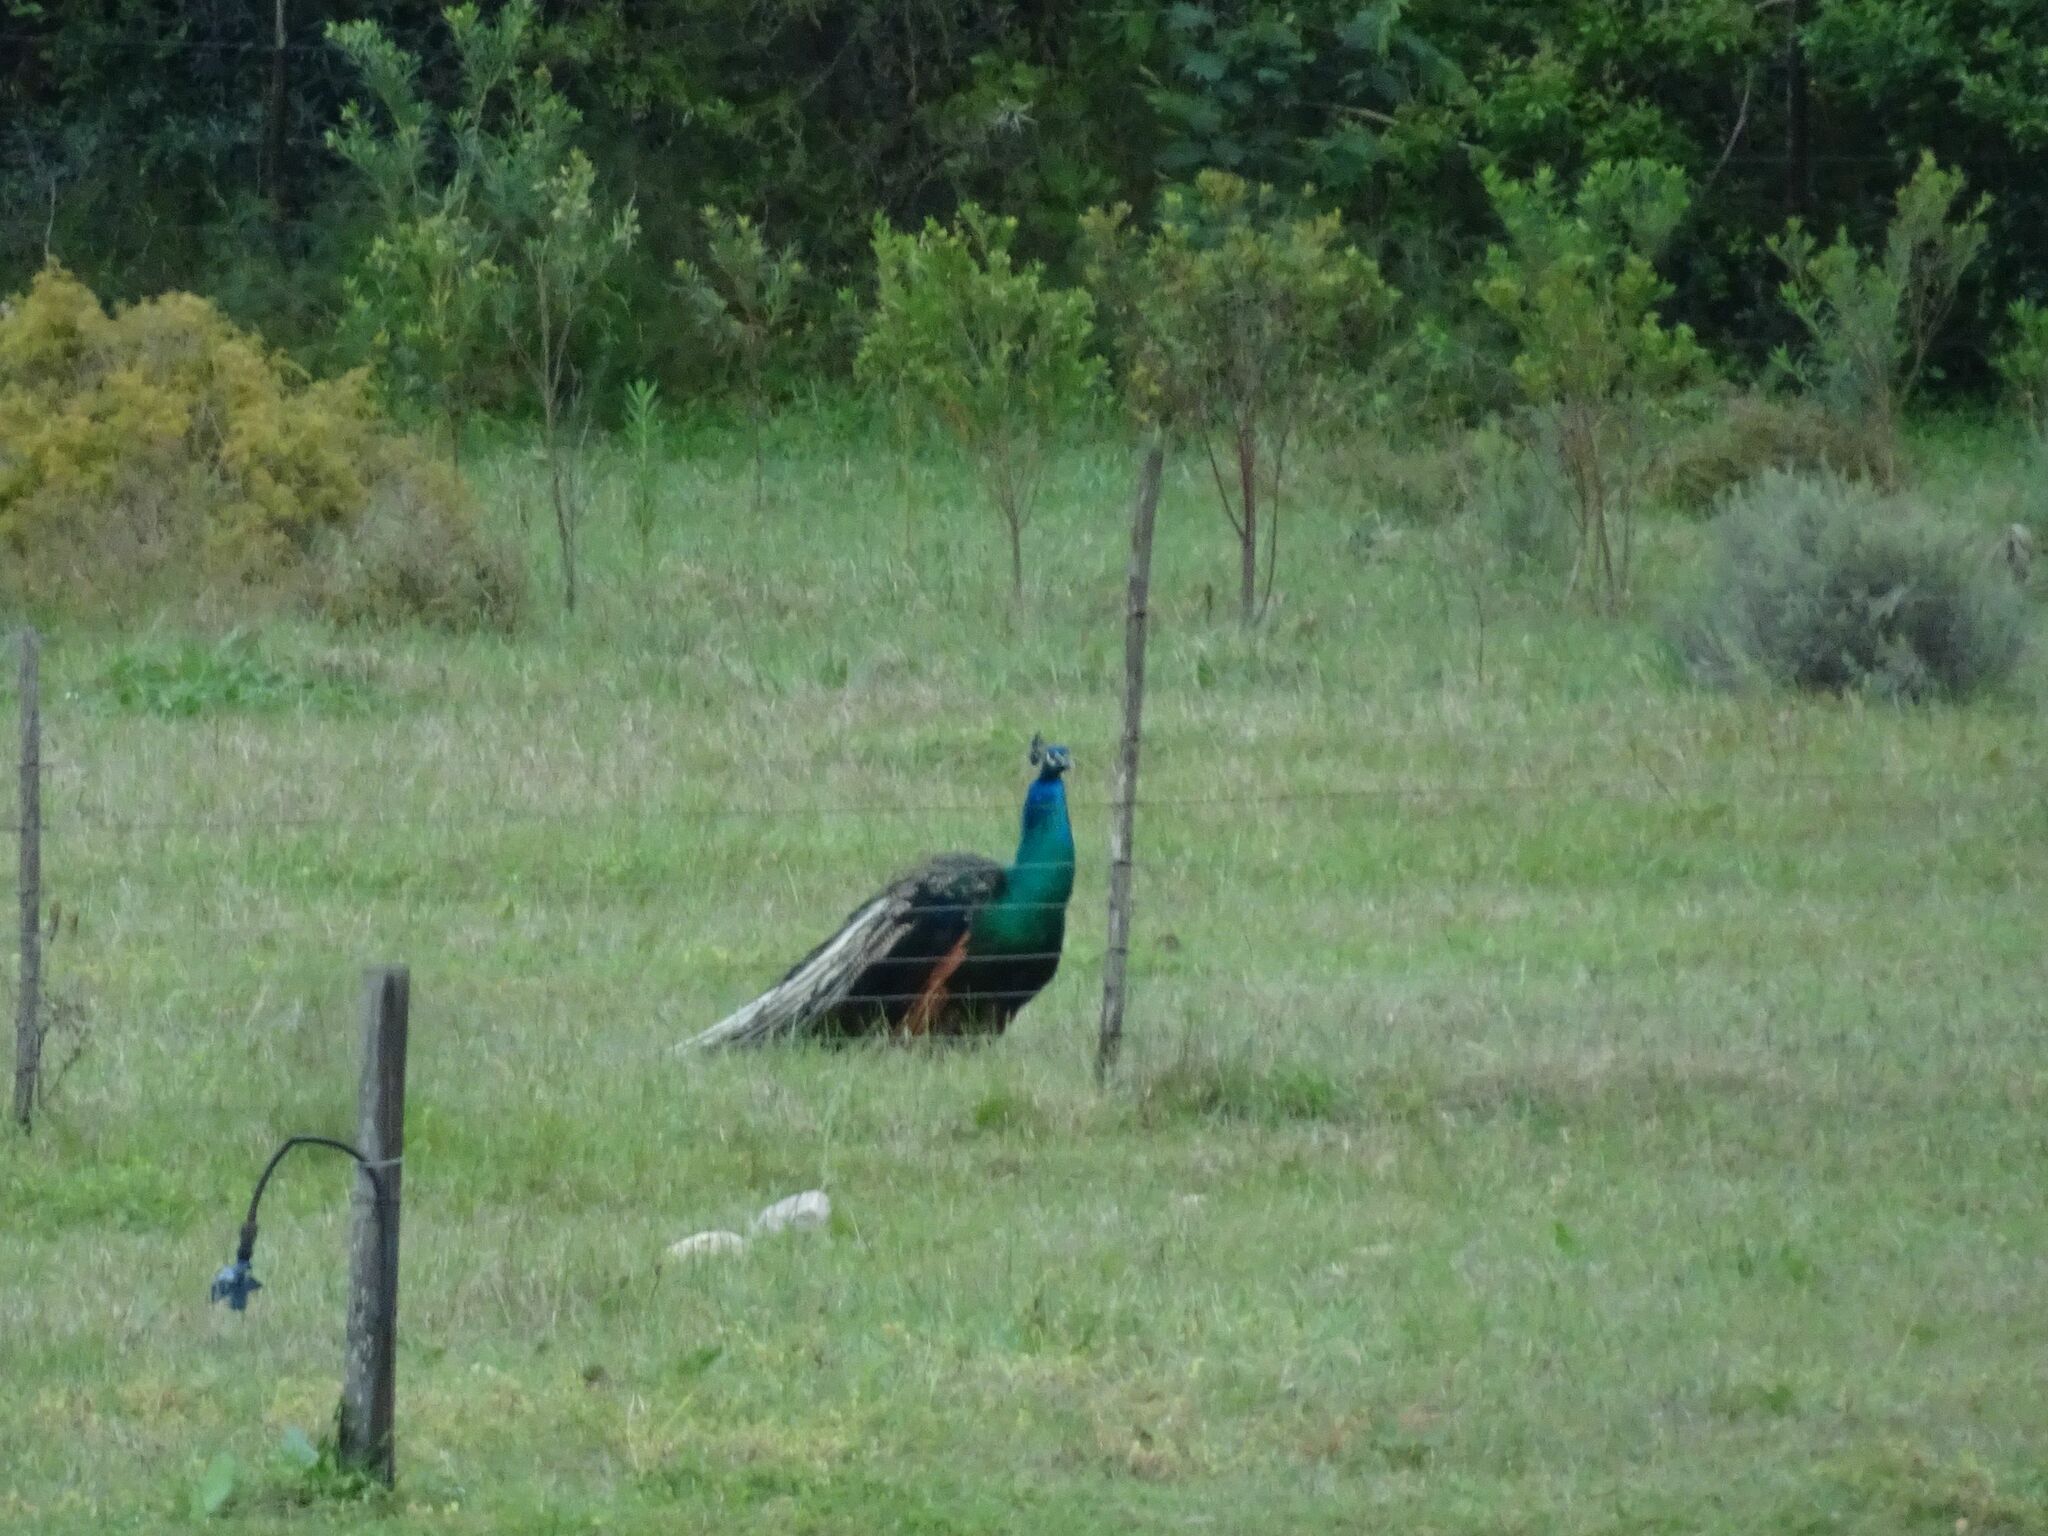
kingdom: Animalia
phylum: Chordata
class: Aves
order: Galliformes
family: Phasianidae
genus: Pavo
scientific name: Pavo cristatus
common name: Indian peafowl
